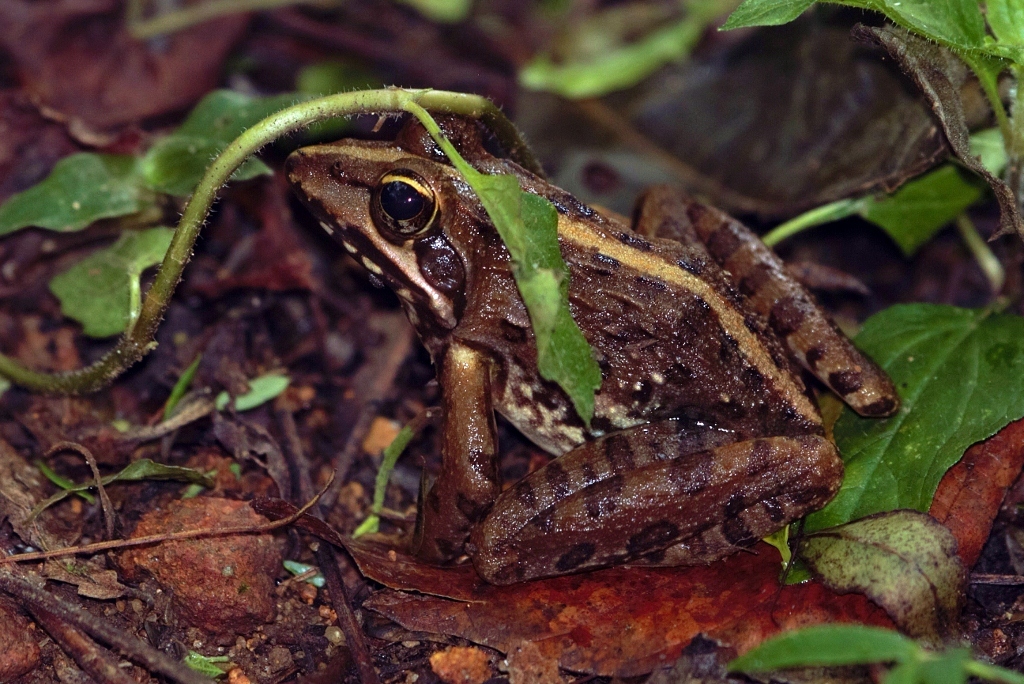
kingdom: Animalia
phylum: Chordata
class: Amphibia
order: Anura
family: Pyxicephalidae
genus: Amietia
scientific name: Amietia delalandii
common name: Delalande's river frog
